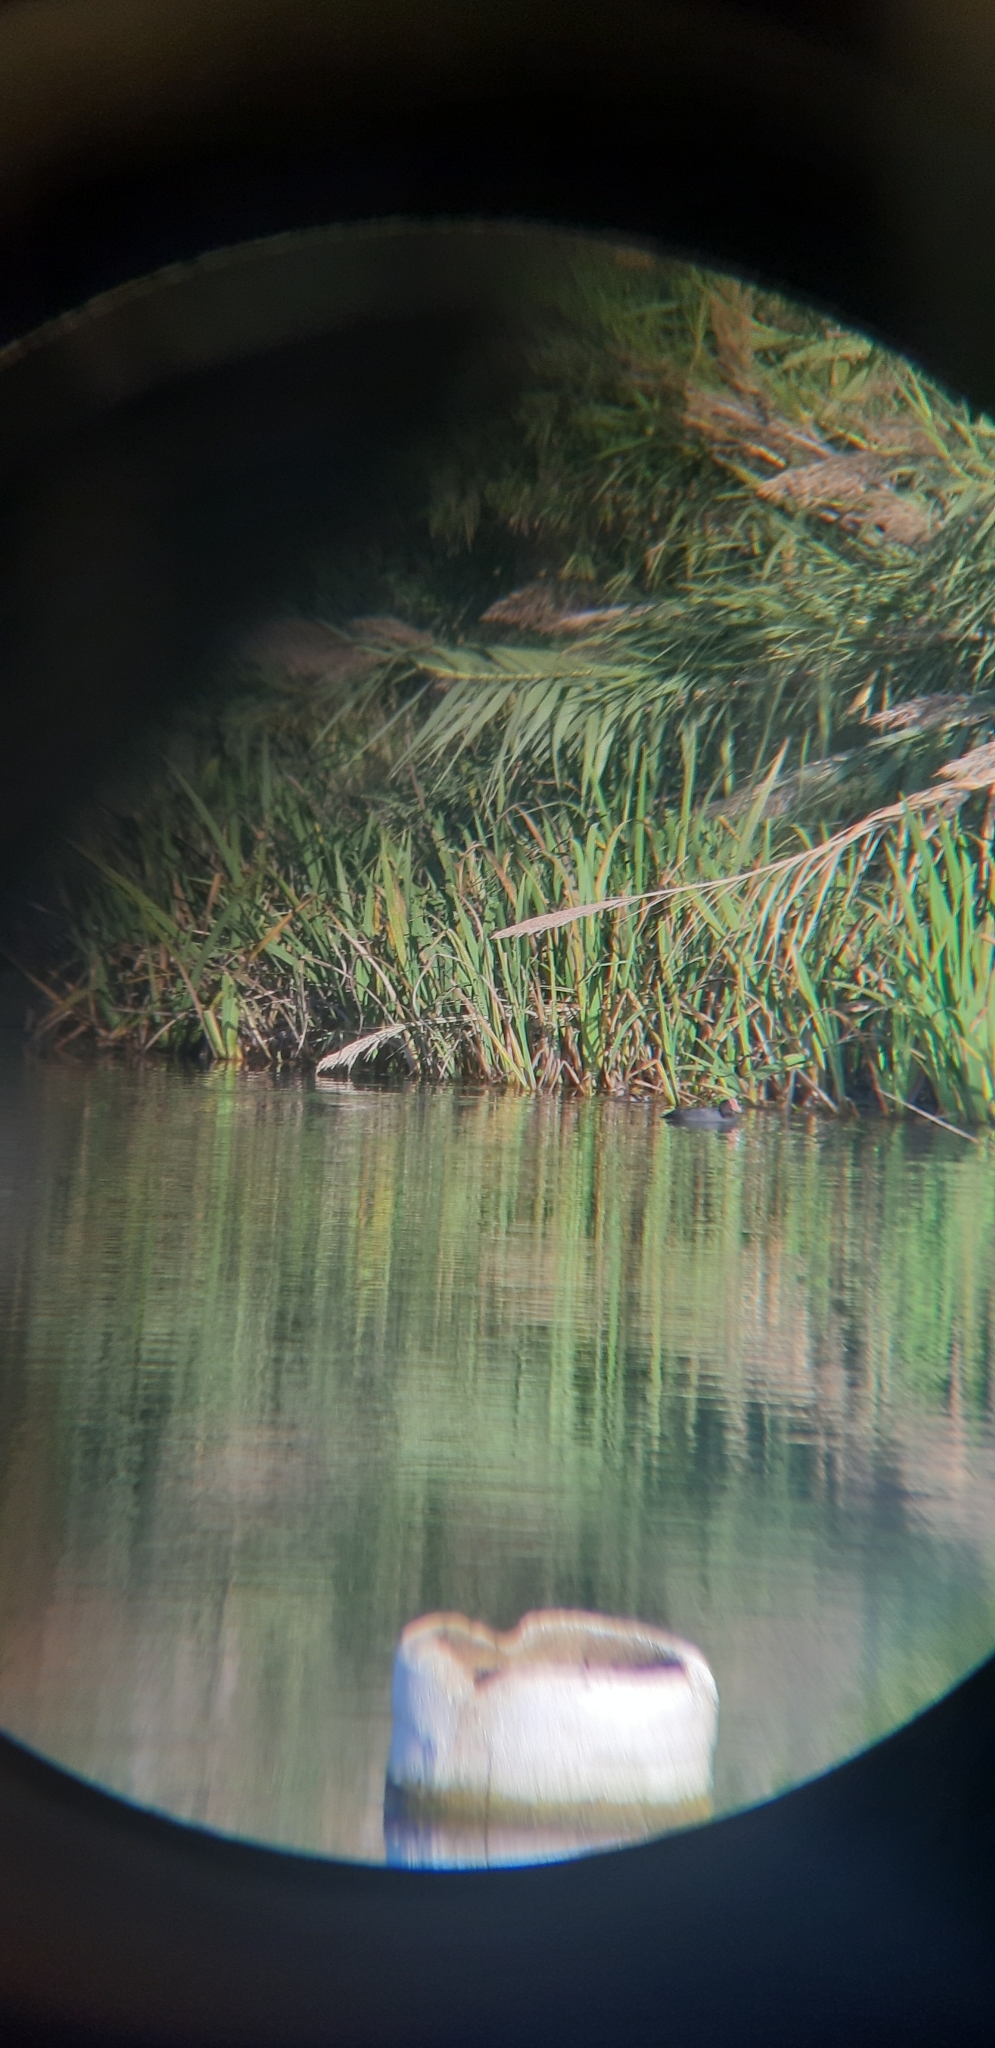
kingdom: Animalia
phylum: Chordata
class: Aves
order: Gruiformes
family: Rallidae
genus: Fulica
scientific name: Fulica atra
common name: Eurasian coot
